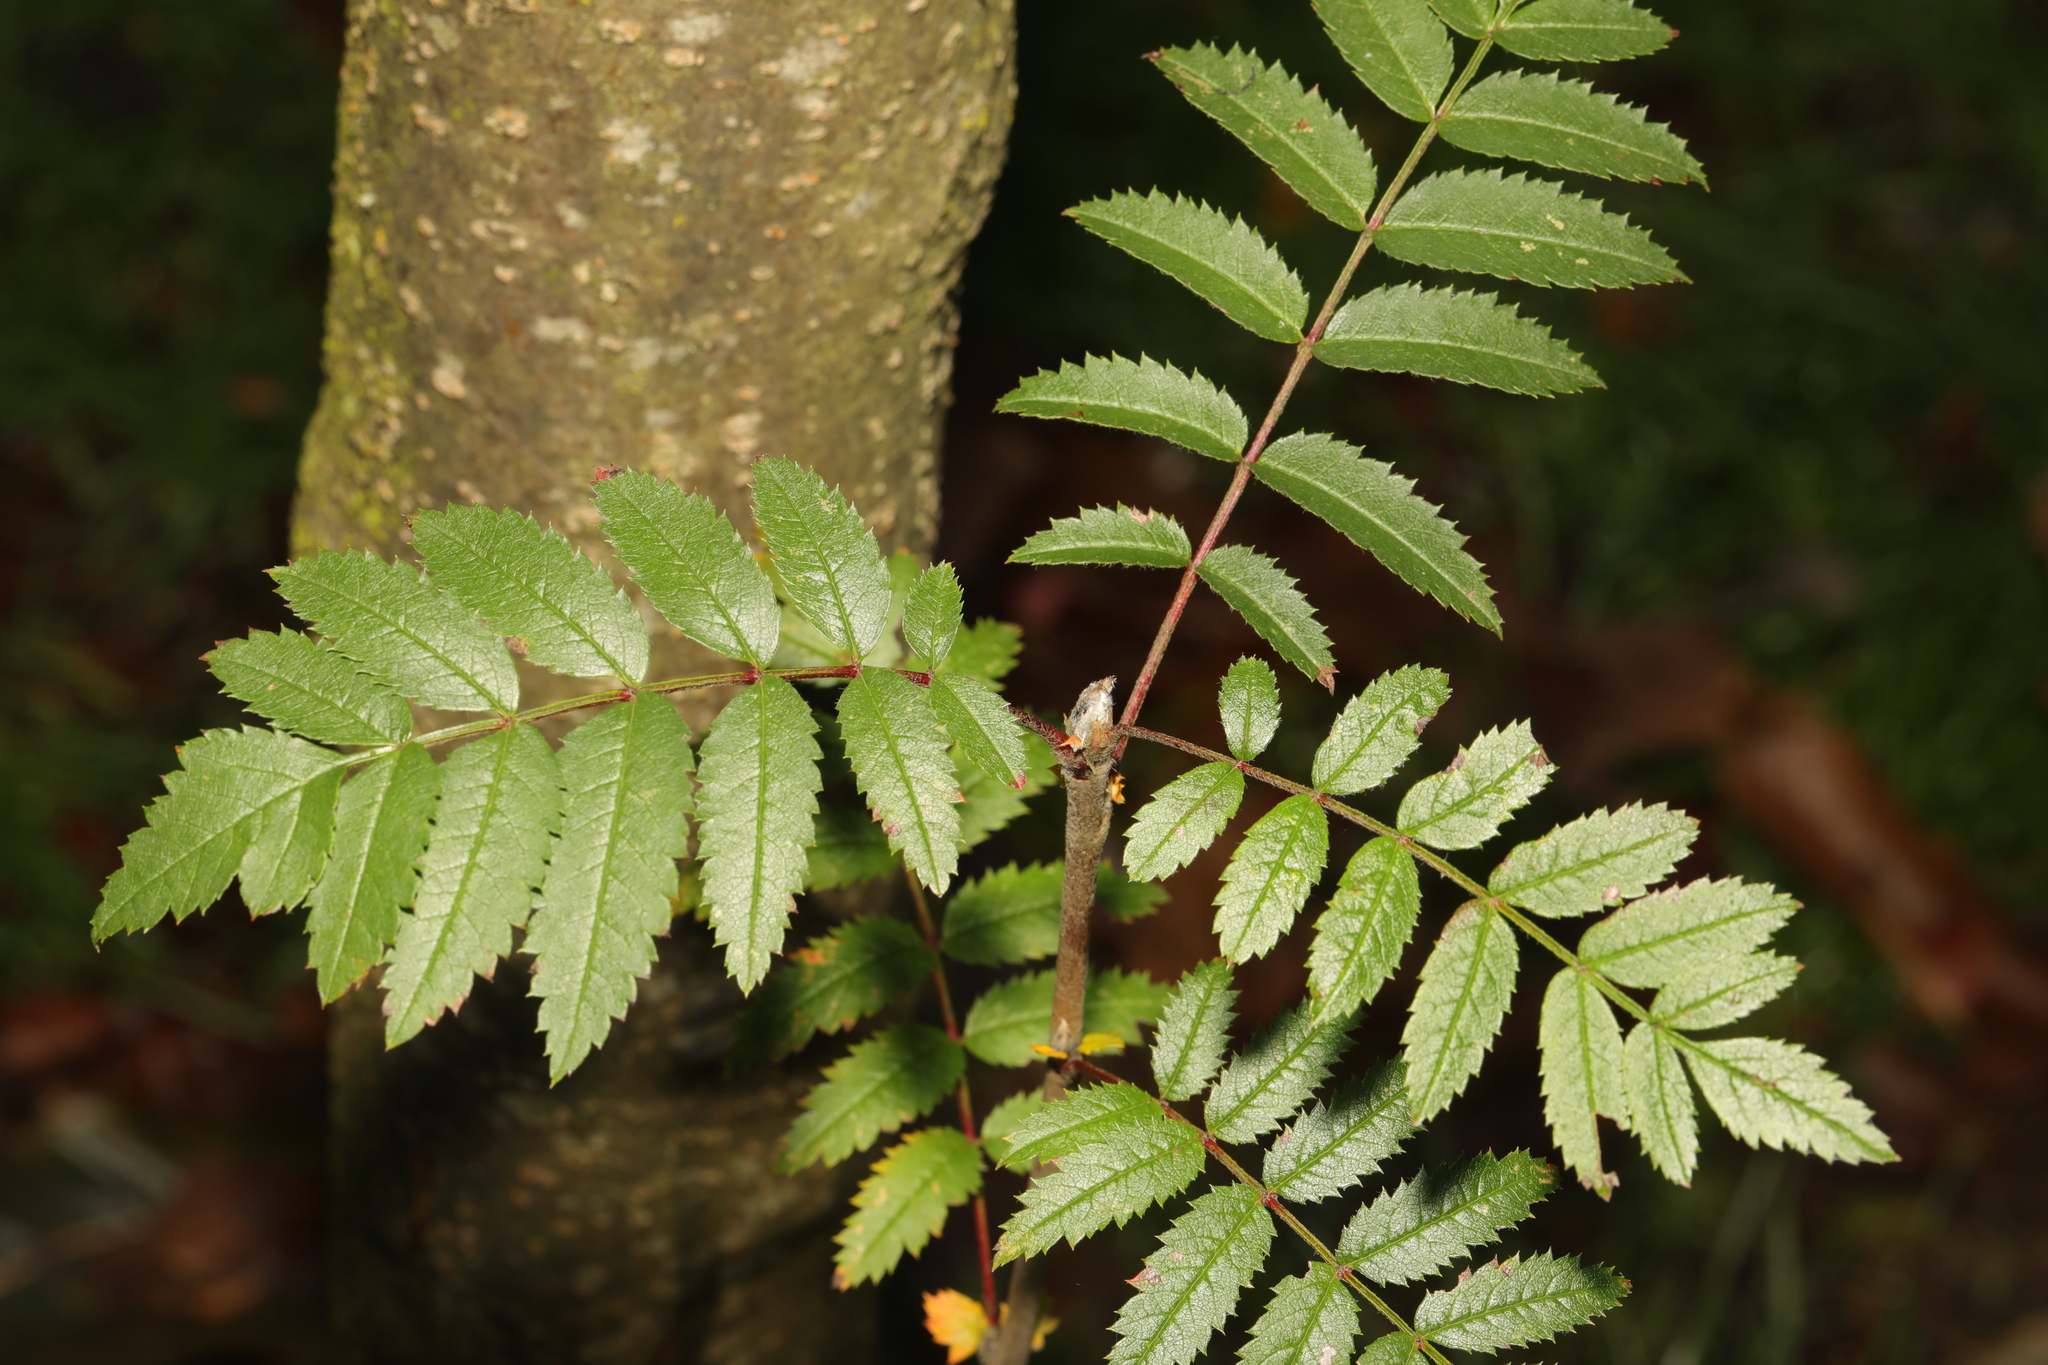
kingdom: Plantae
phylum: Tracheophyta
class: Magnoliopsida
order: Rosales
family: Rosaceae
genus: Sorbus
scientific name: Sorbus aucuparia
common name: Rowan
